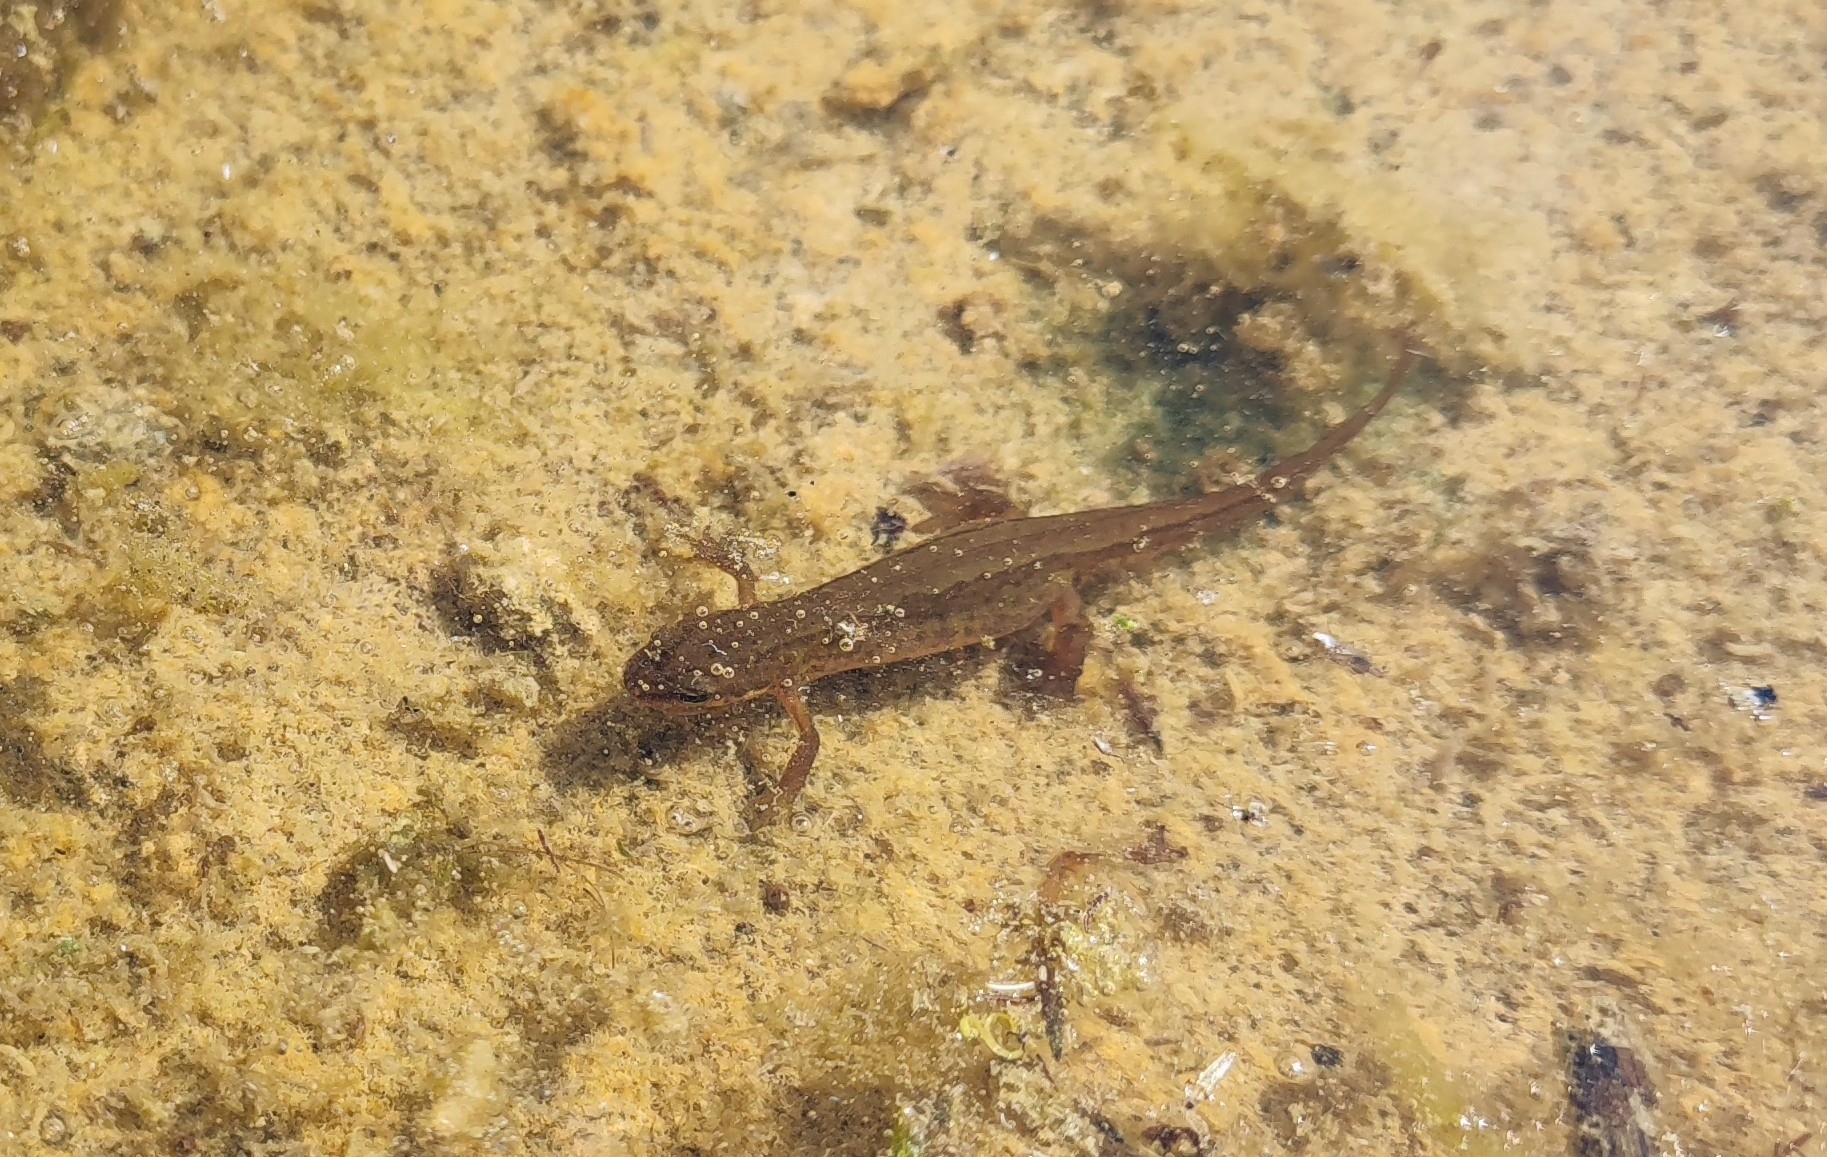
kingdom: Animalia
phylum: Chordata
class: Amphibia
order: Caudata
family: Salamandridae
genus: Lissotriton
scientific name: Lissotriton vulgaris
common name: Smooth newt
